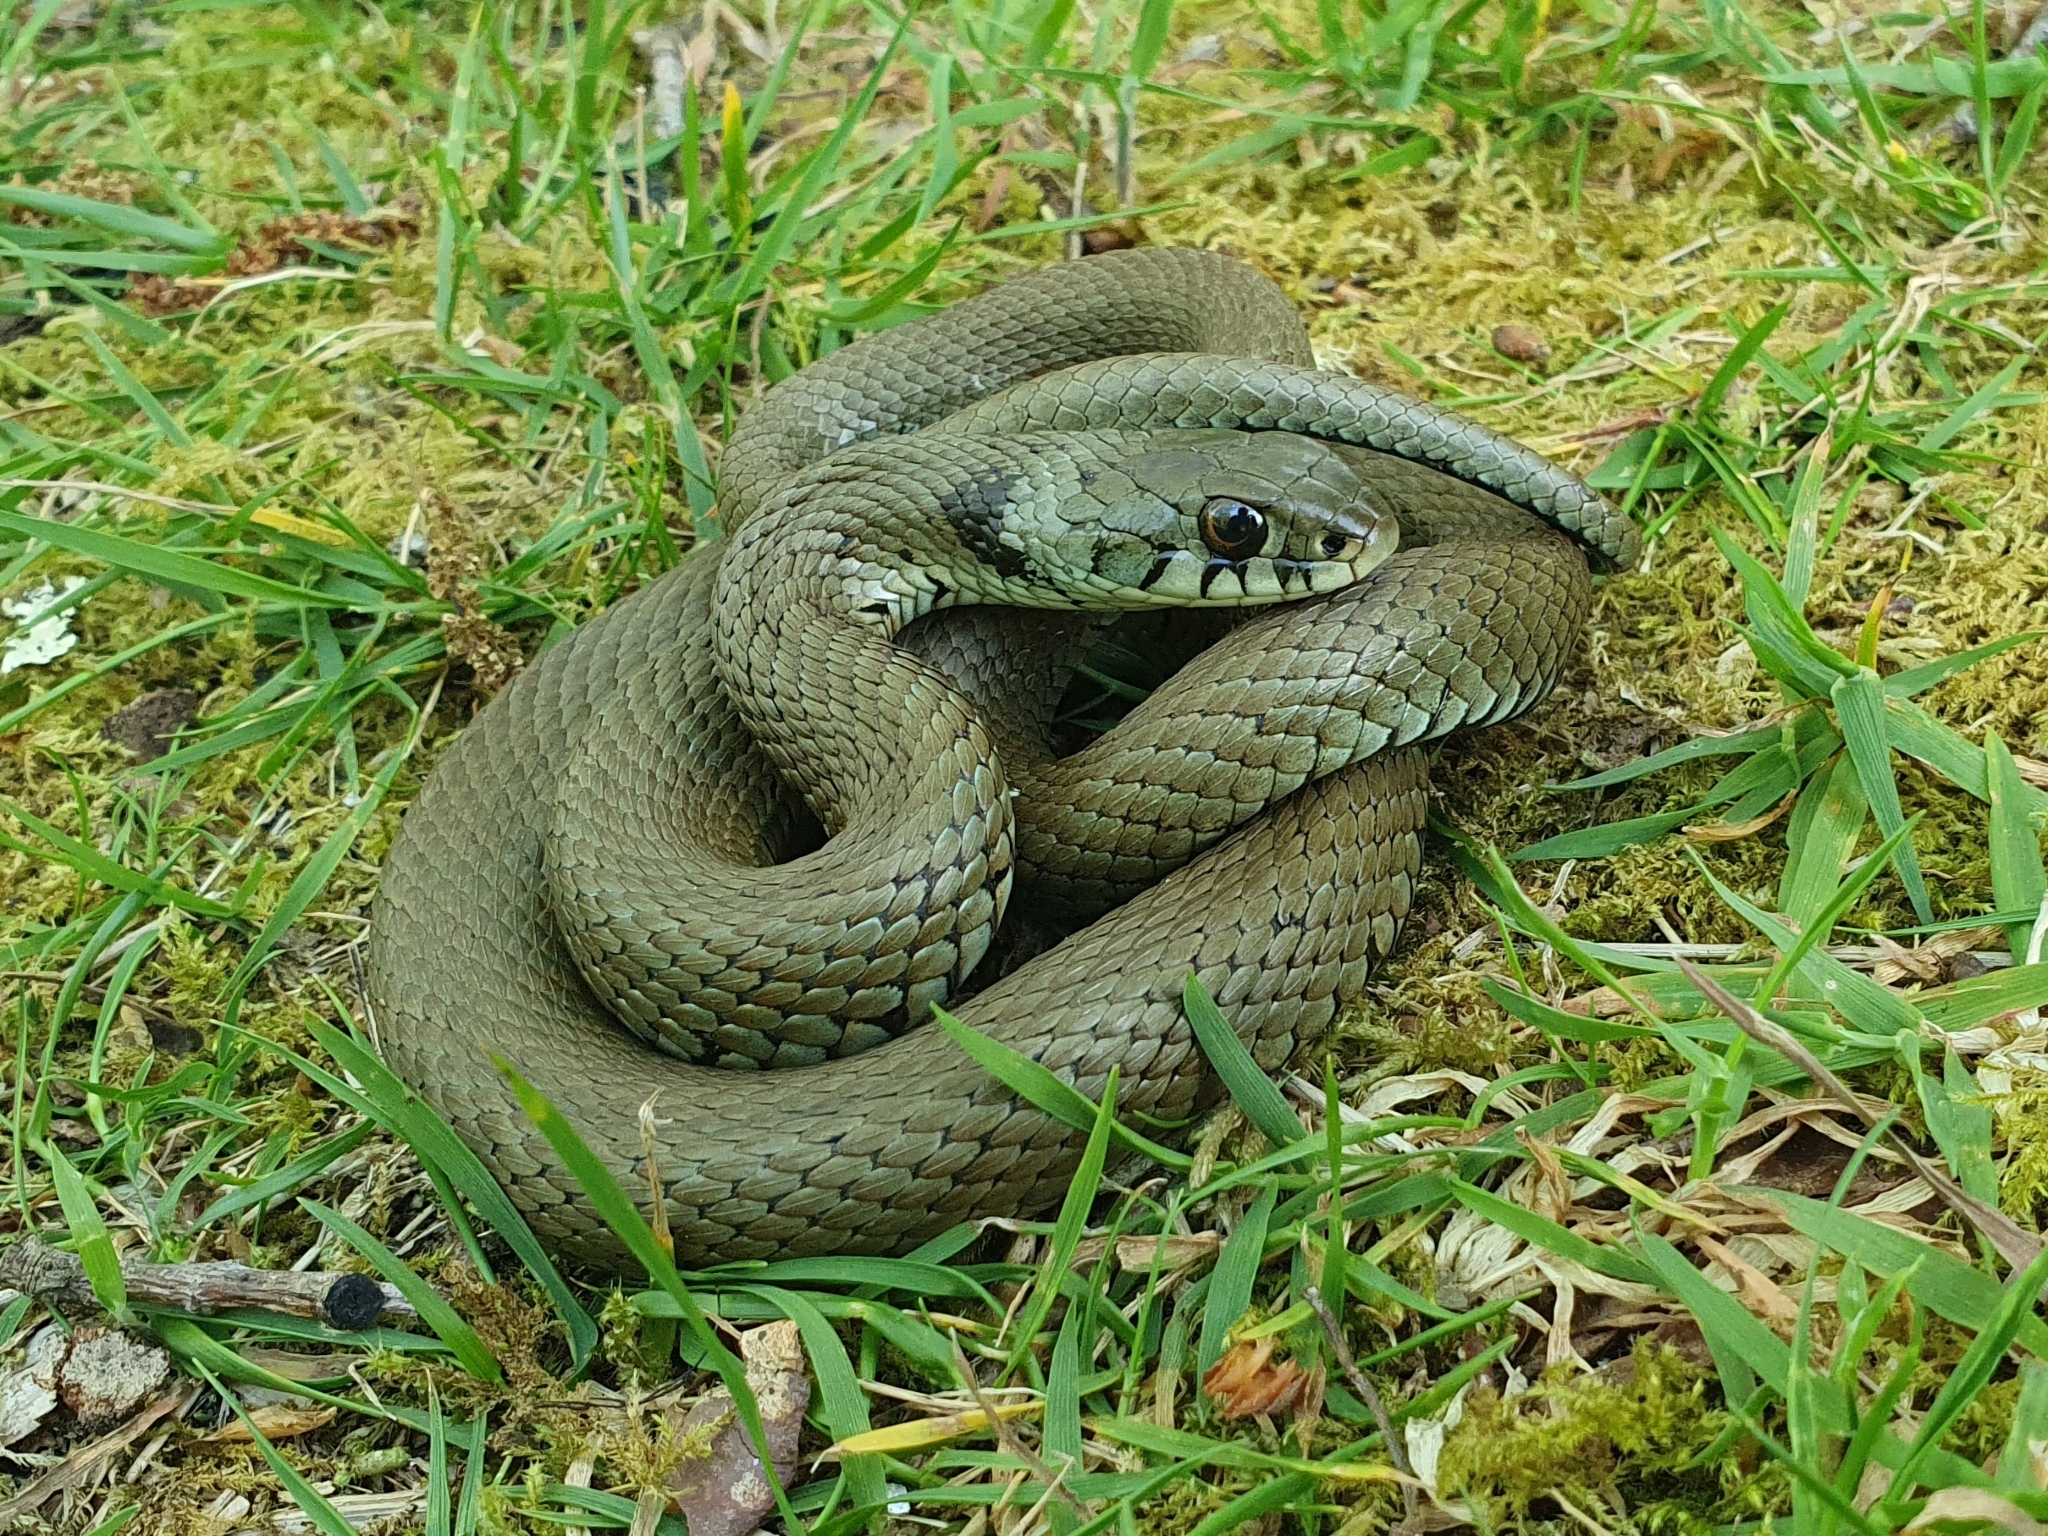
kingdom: Animalia
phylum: Chordata
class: Squamata
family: Colubridae
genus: Natrix
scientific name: Natrix astreptophora
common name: Red-eyed grass snake
